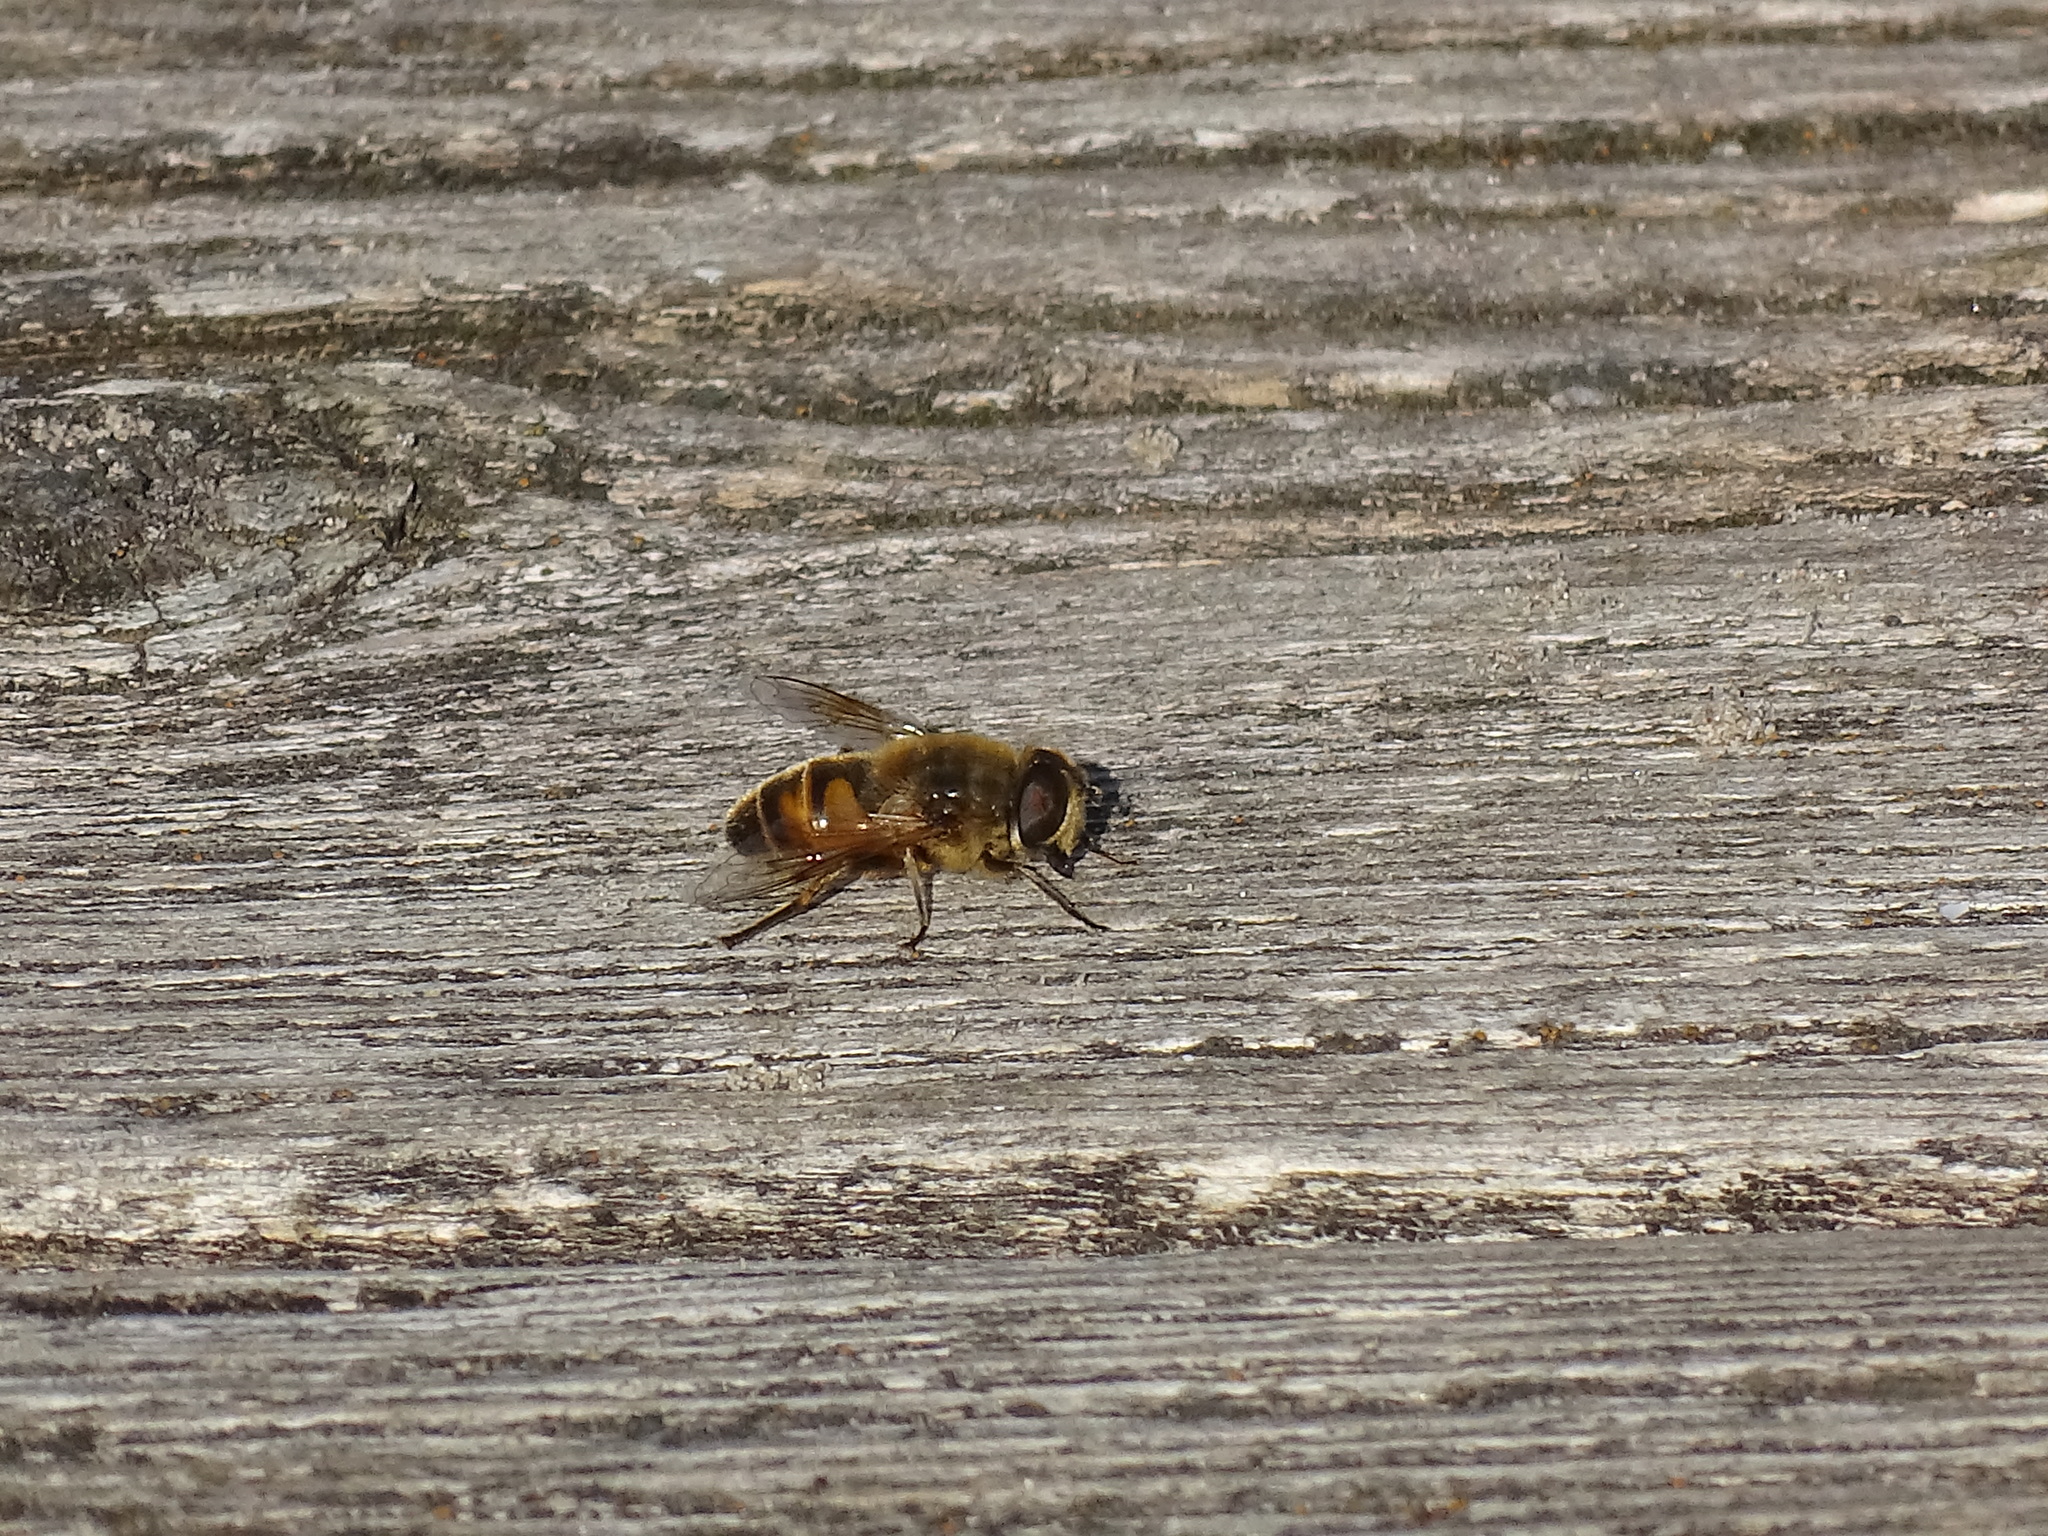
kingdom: Animalia
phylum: Arthropoda
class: Insecta
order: Diptera
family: Syrphidae
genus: Eristalis
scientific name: Eristalis tenax
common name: Drone fly
